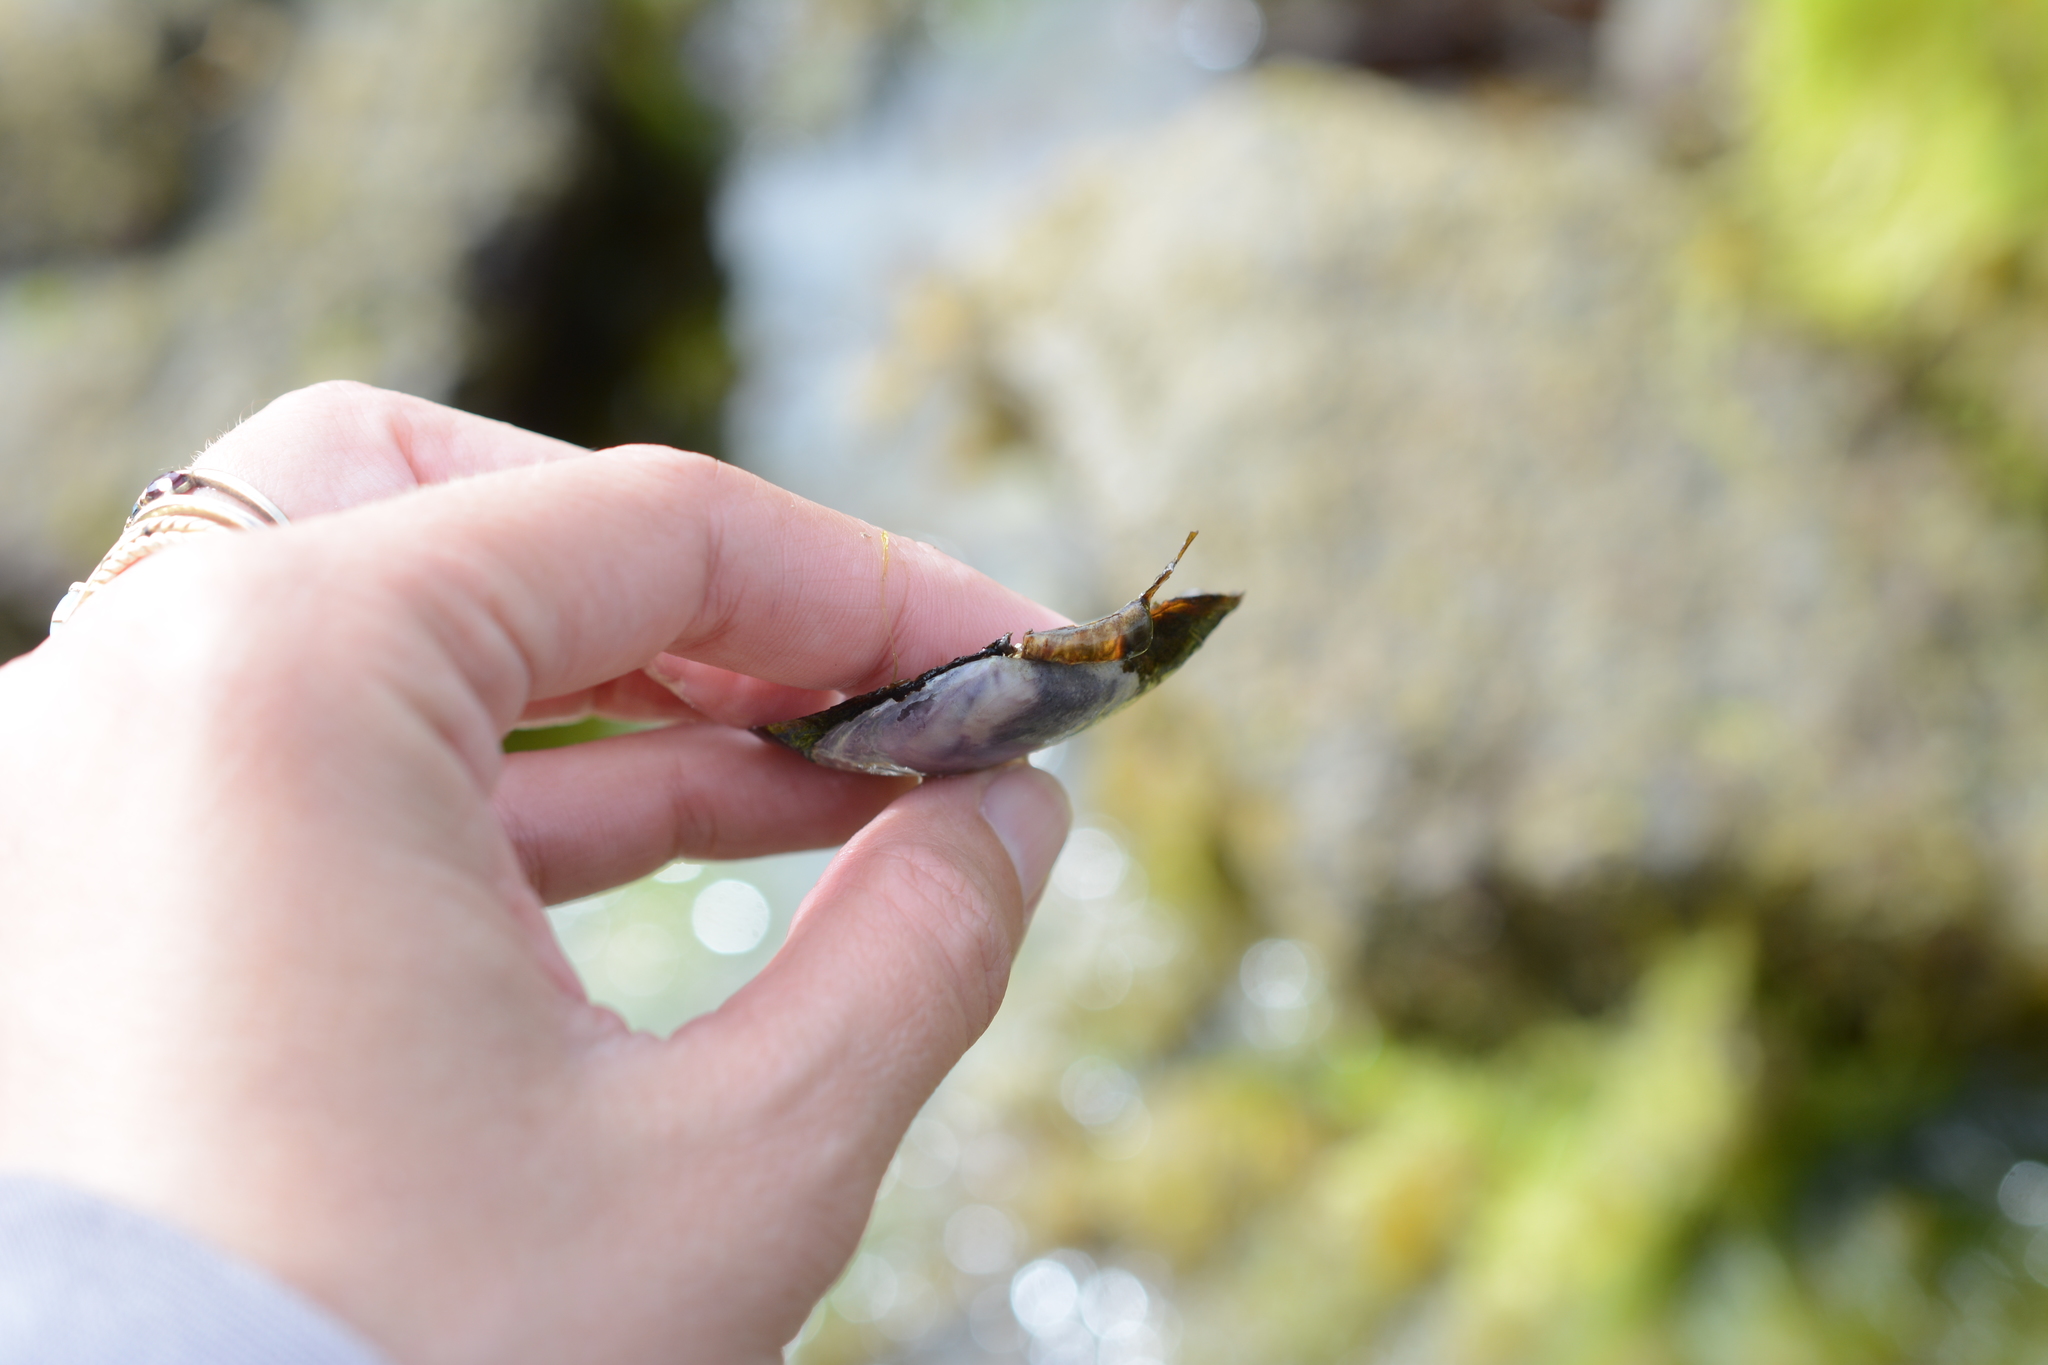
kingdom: Animalia
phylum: Mollusca
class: Bivalvia
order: Cardiida
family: Psammobiidae
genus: Nuttallia
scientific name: Nuttallia obscurata
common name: Purple mahogany-clam
